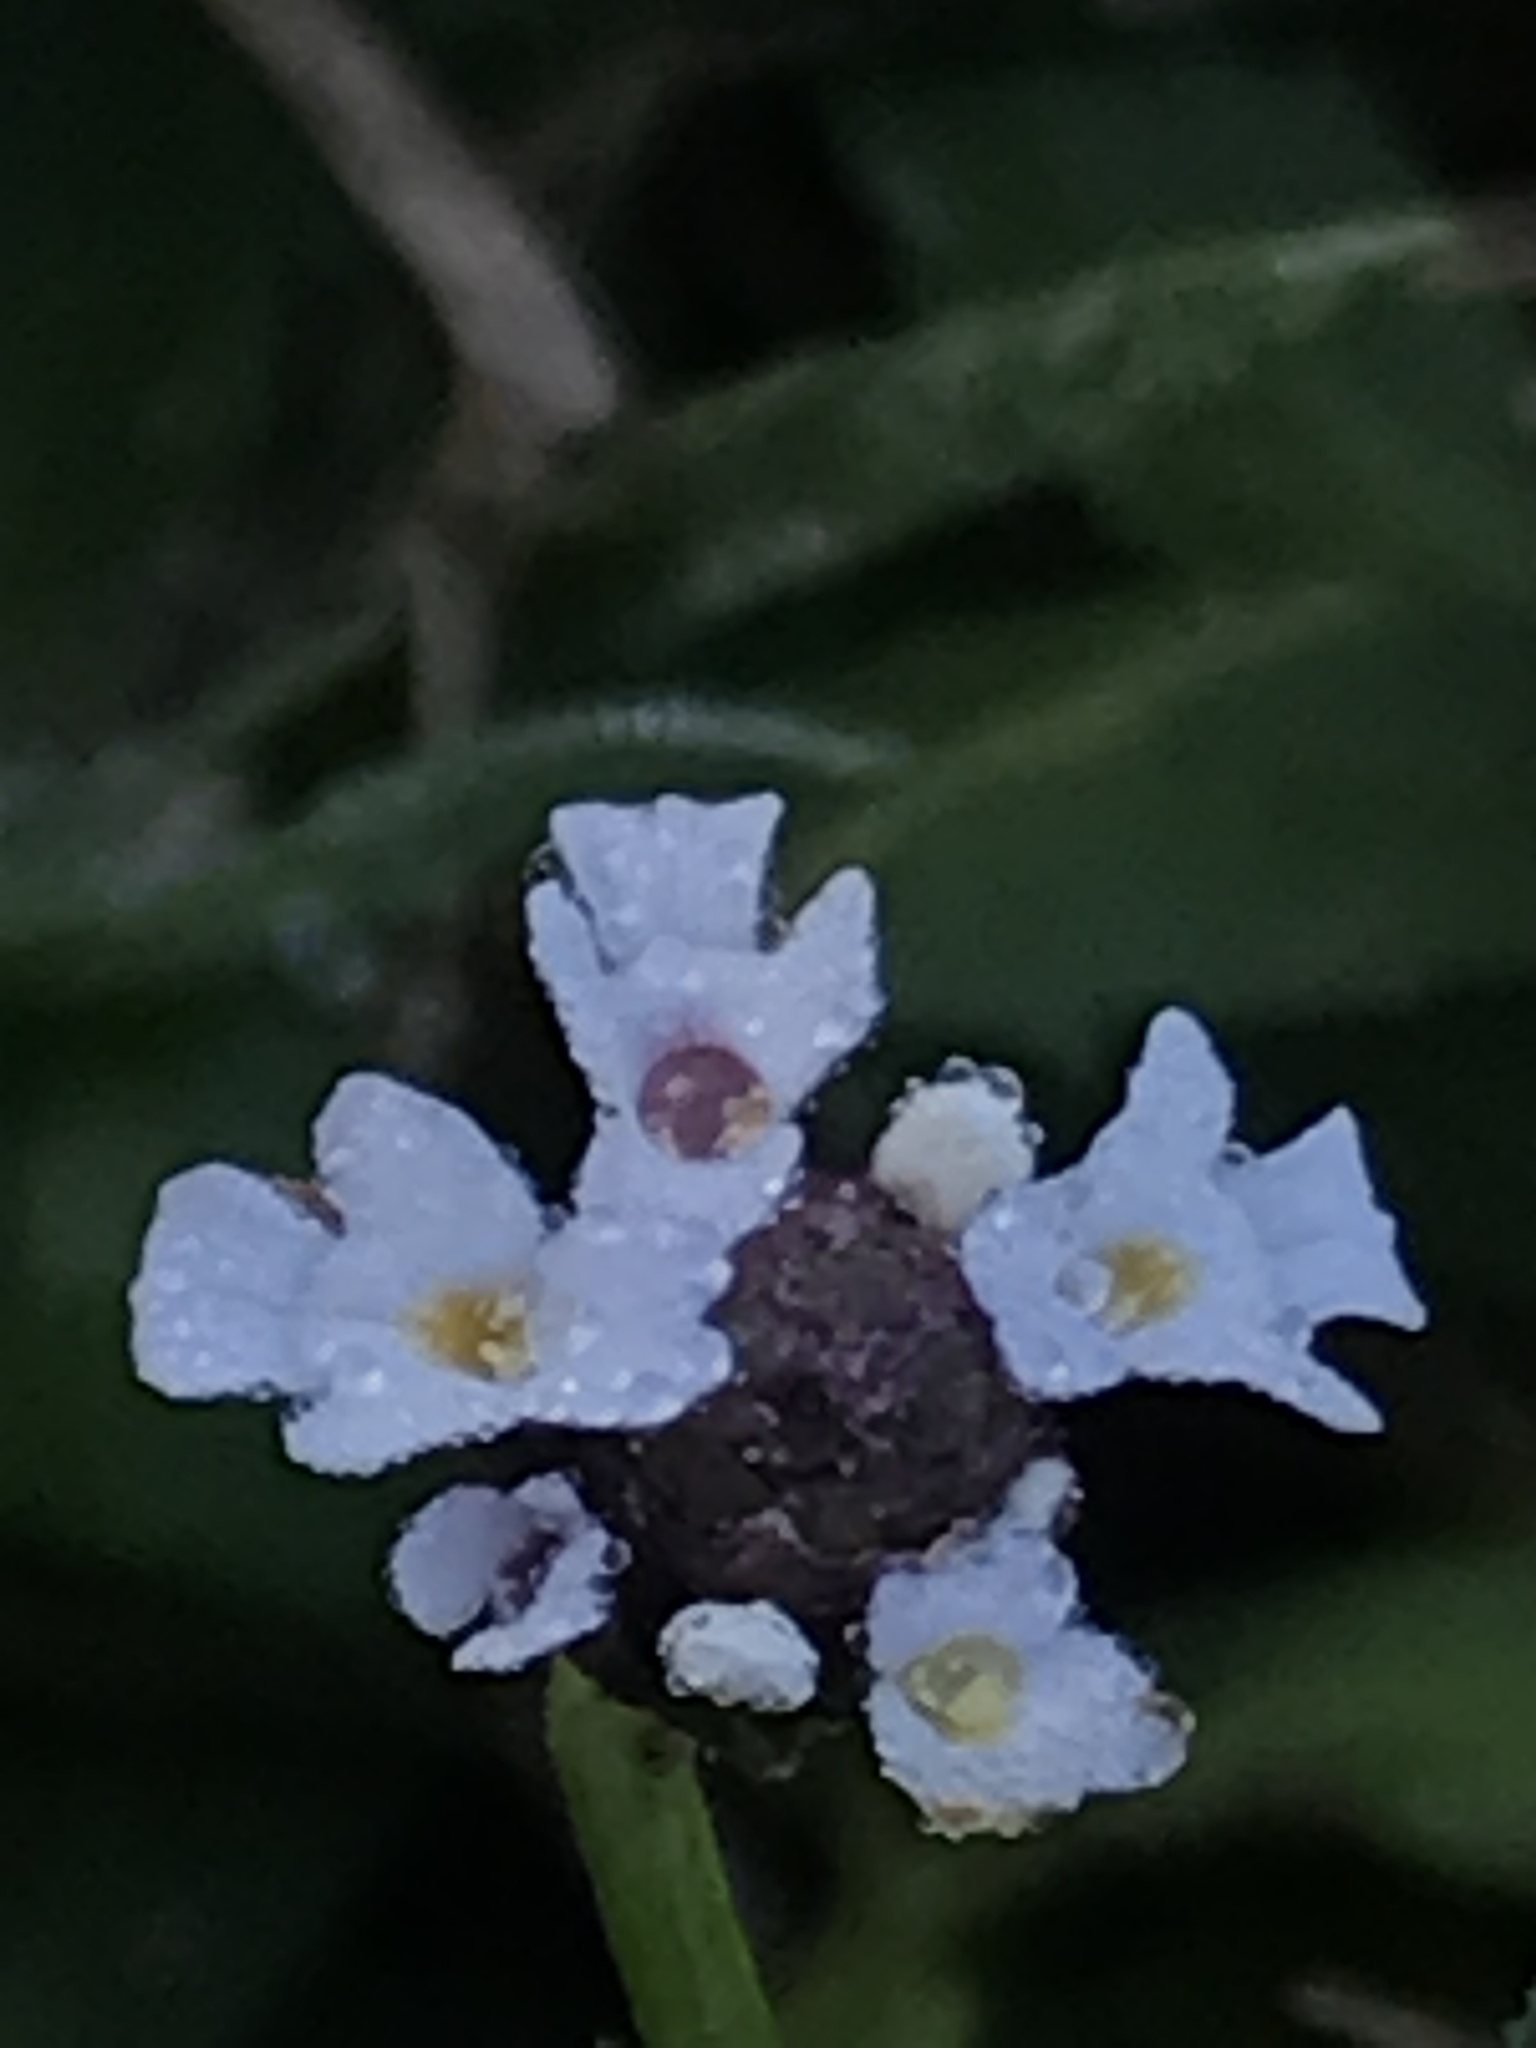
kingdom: Plantae
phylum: Tracheophyta
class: Magnoliopsida
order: Lamiales
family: Verbenaceae
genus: Phyla
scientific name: Phyla nodiflora
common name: Frogfruit
